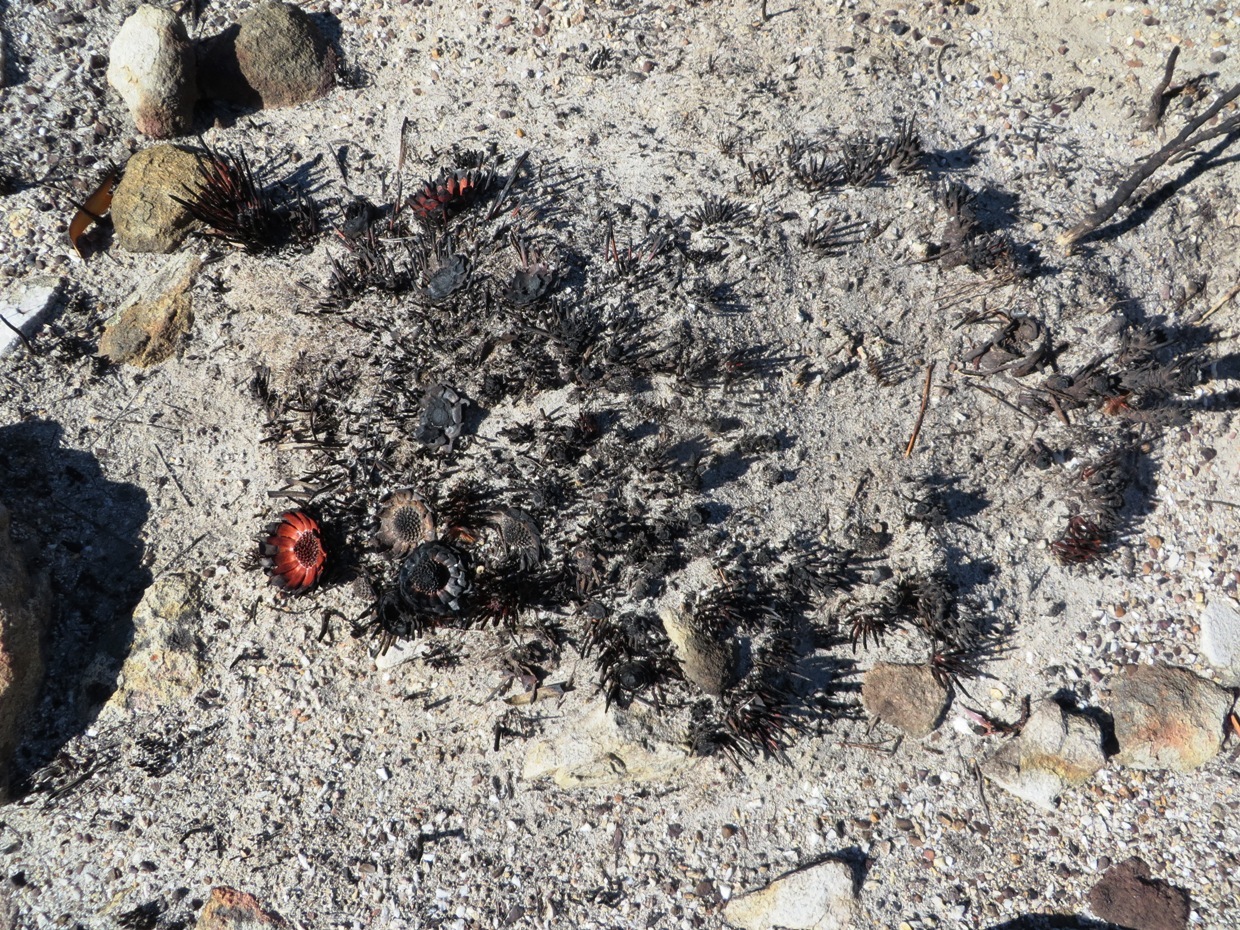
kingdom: Plantae
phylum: Tracheophyta
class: Magnoliopsida
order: Proteales
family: Proteaceae
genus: Protea
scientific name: Protea scabra
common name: Sandpaper-leaf sugarbush
